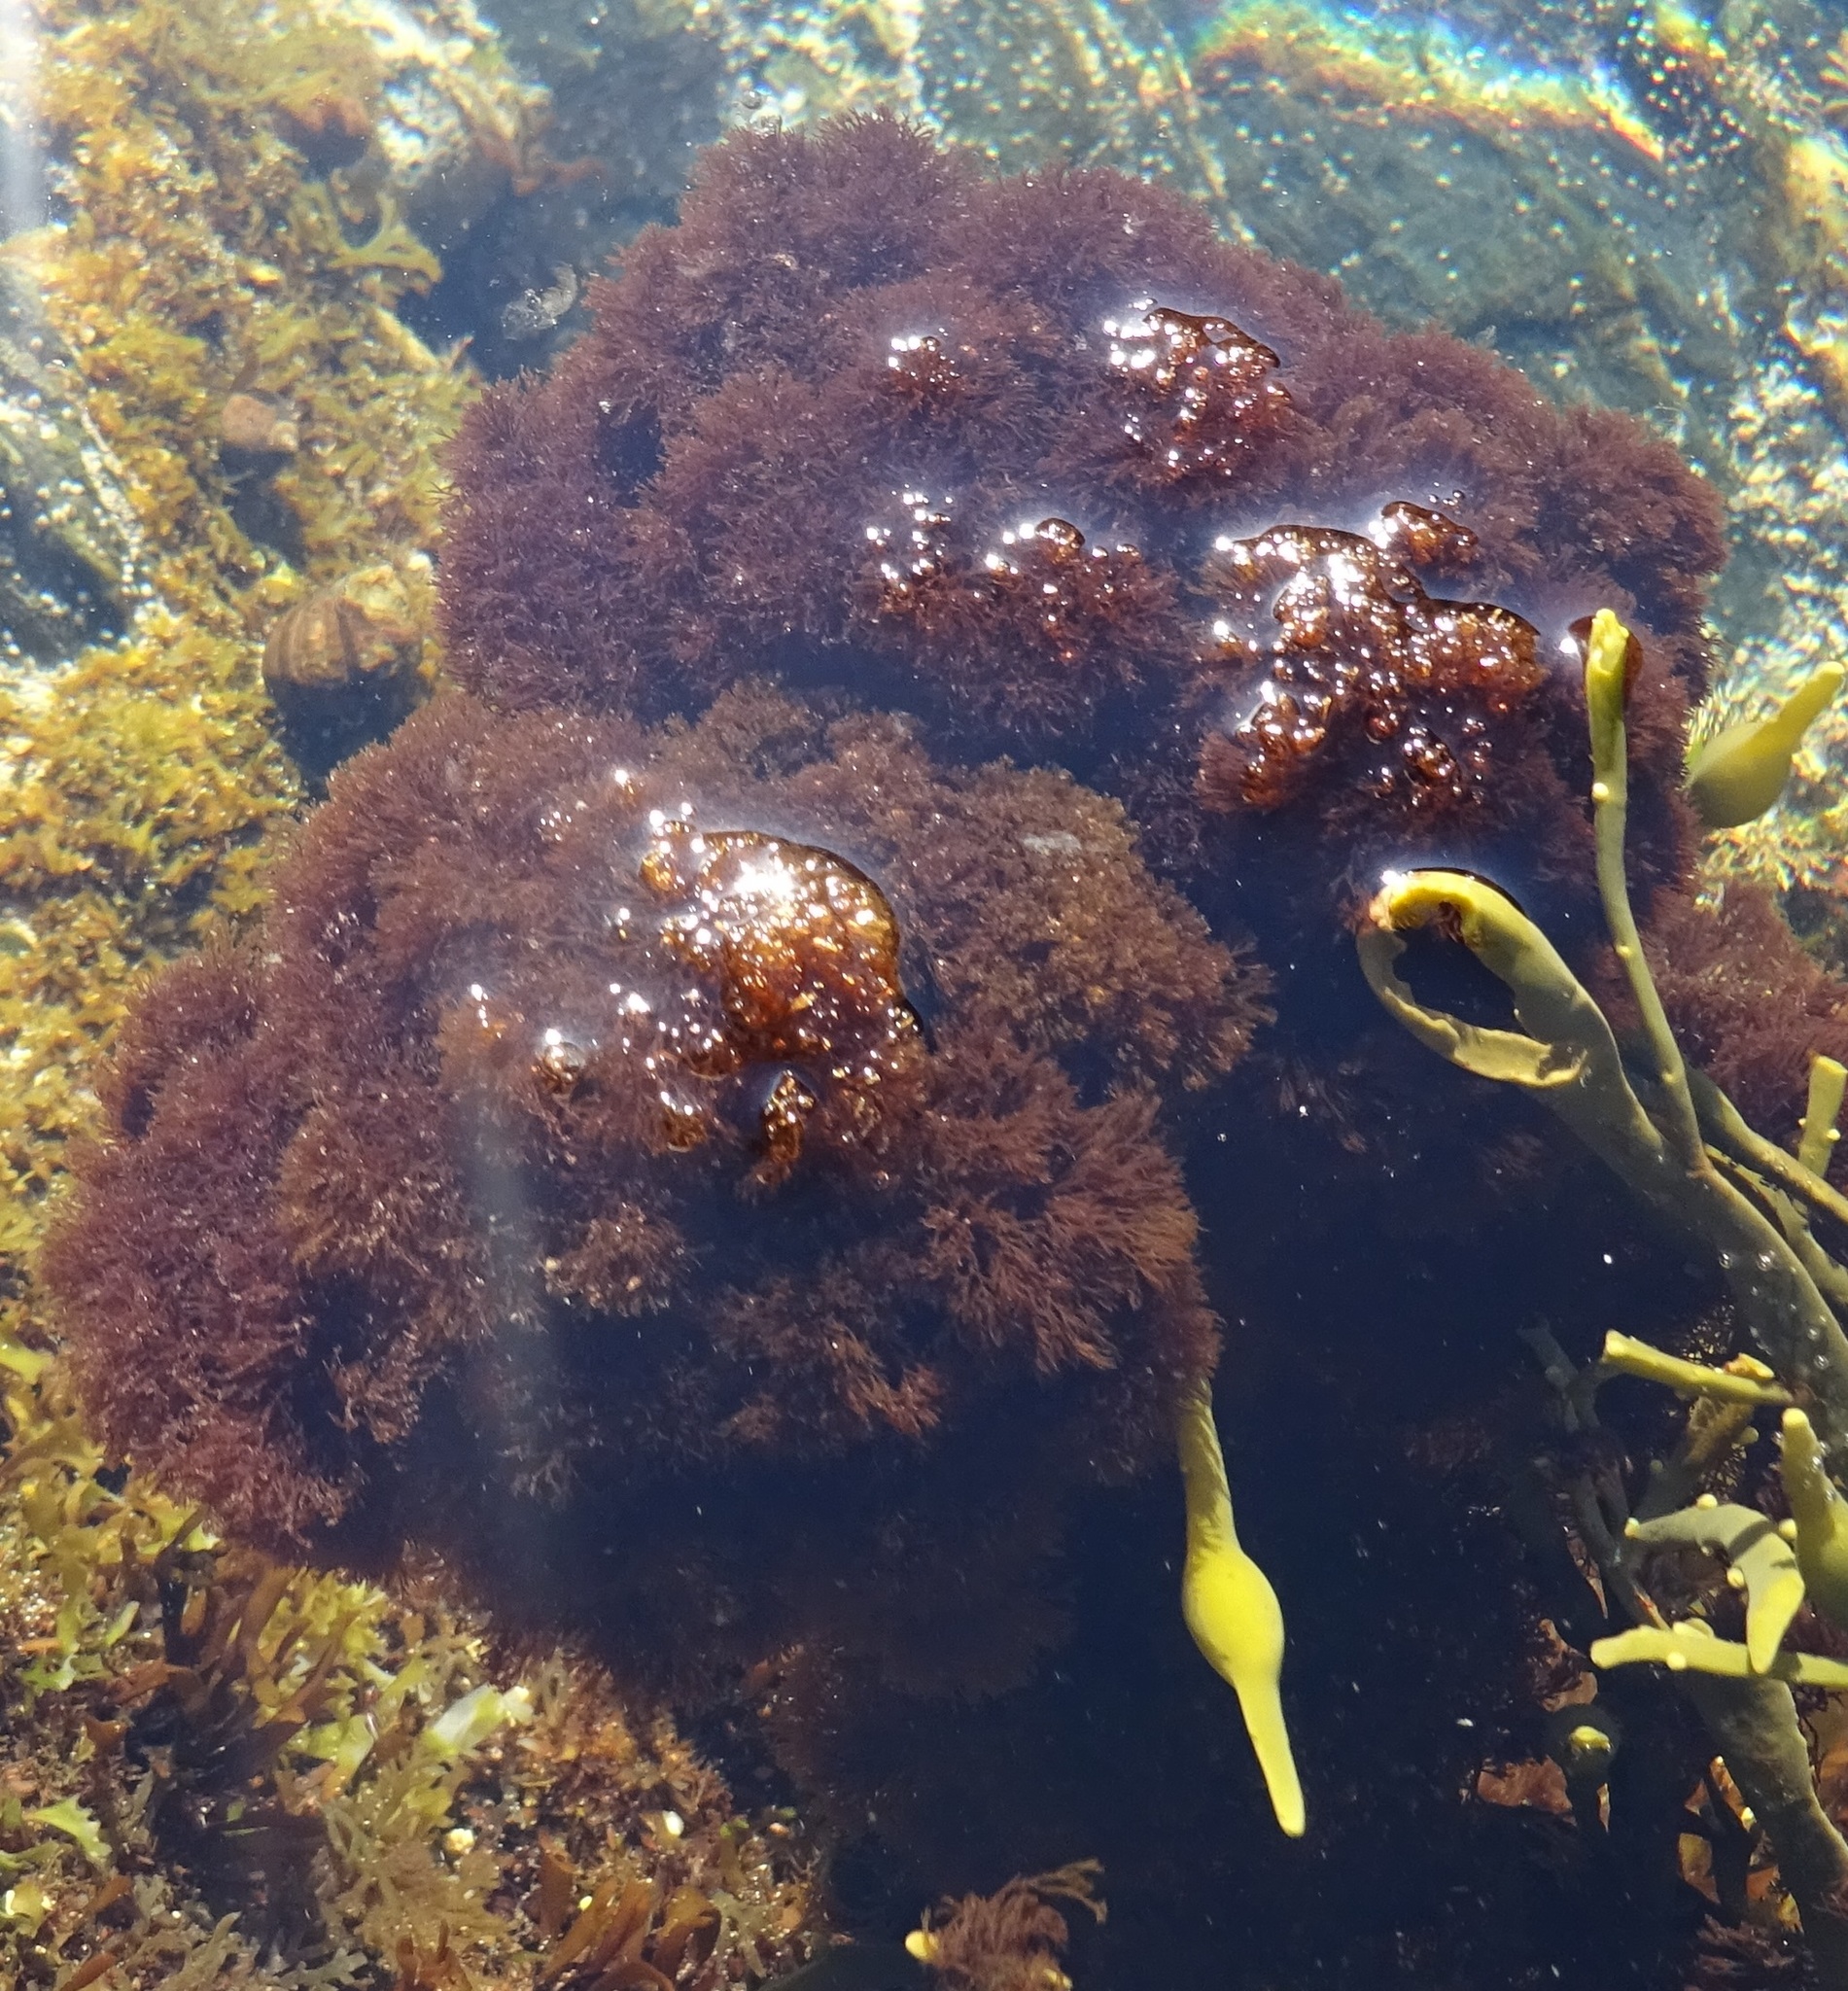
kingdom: Plantae
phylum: Rhodophyta
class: Florideophyceae
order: Ceramiales
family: Rhodomelaceae
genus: Vertebrata
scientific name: Vertebrata lanosa
